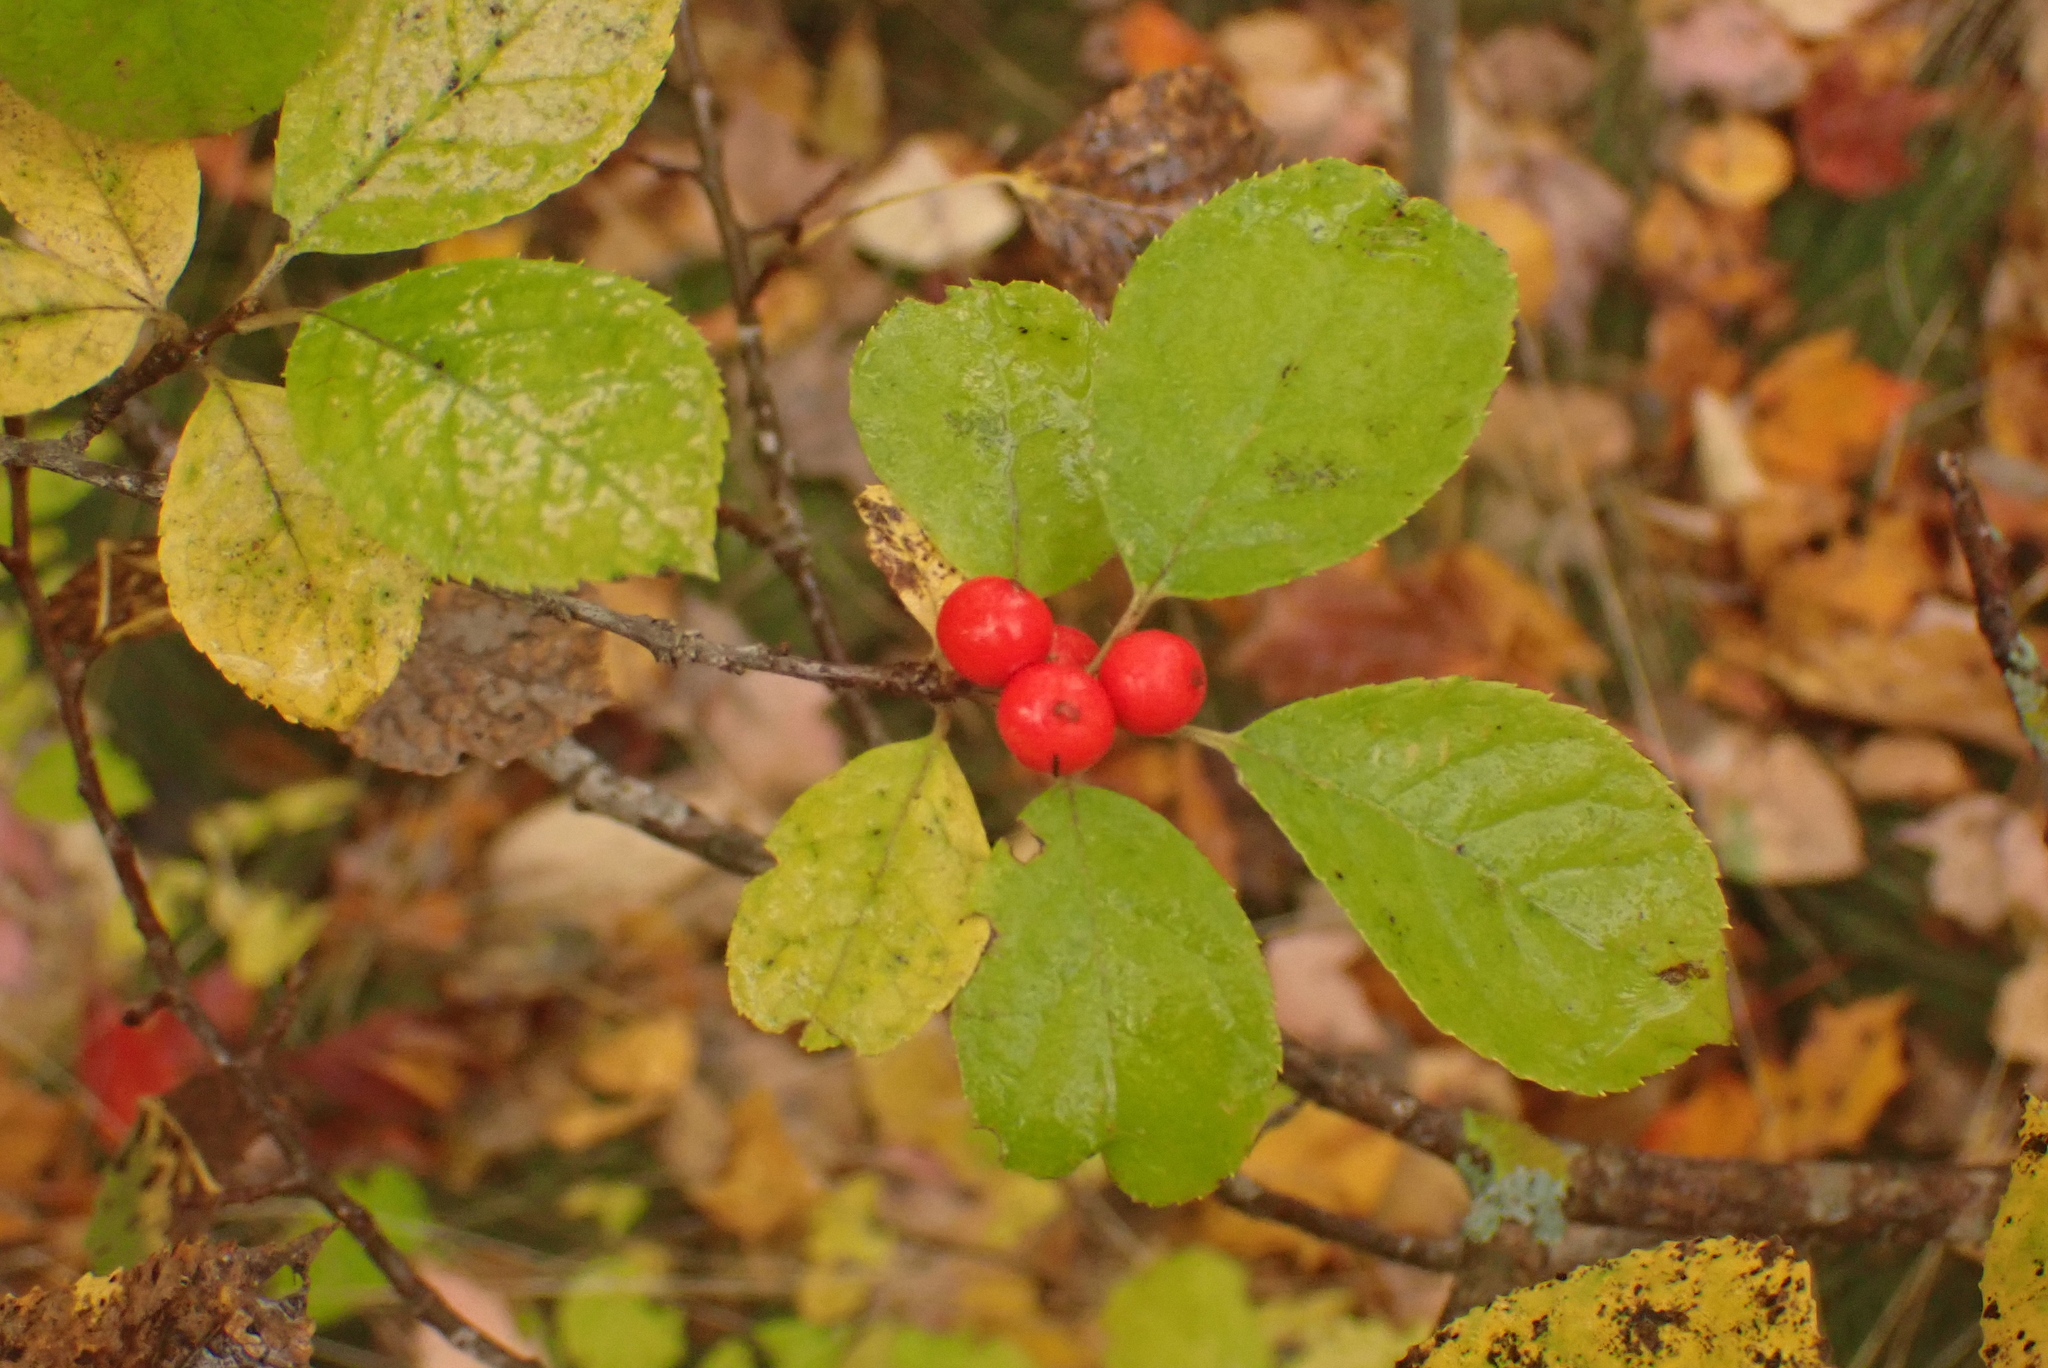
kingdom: Plantae
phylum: Tracheophyta
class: Magnoliopsida
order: Aquifoliales
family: Aquifoliaceae
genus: Ilex
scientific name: Ilex verticillata
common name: Virginia winterberry
